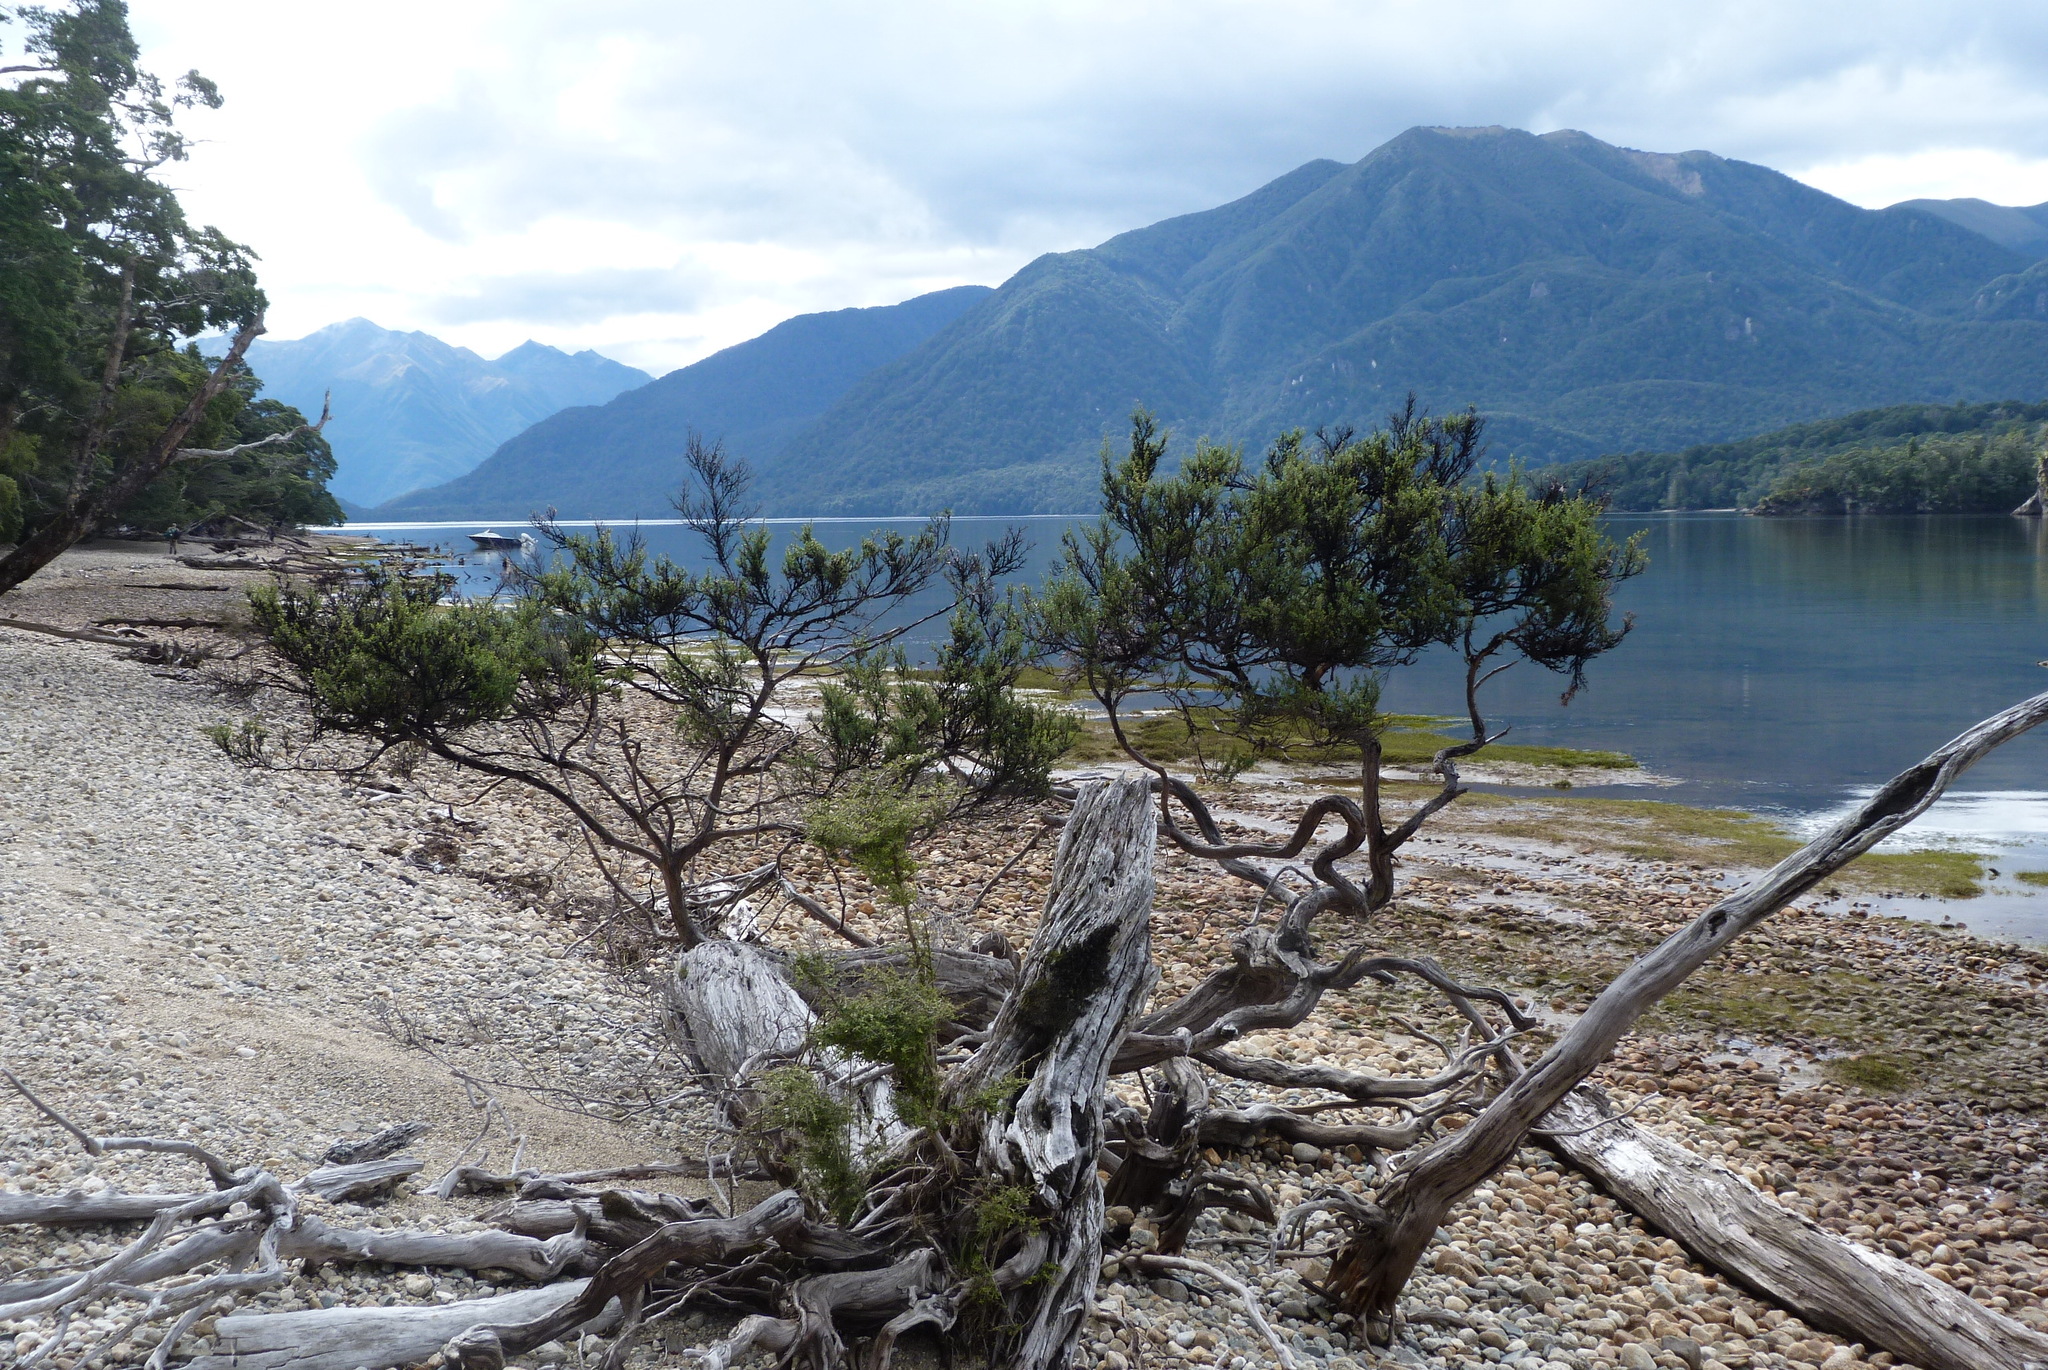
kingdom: Plantae
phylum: Tracheophyta
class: Magnoliopsida
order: Myrtales
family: Myrtaceae
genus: Leptospermum
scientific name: Leptospermum scoparium
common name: Broom tea-tree
